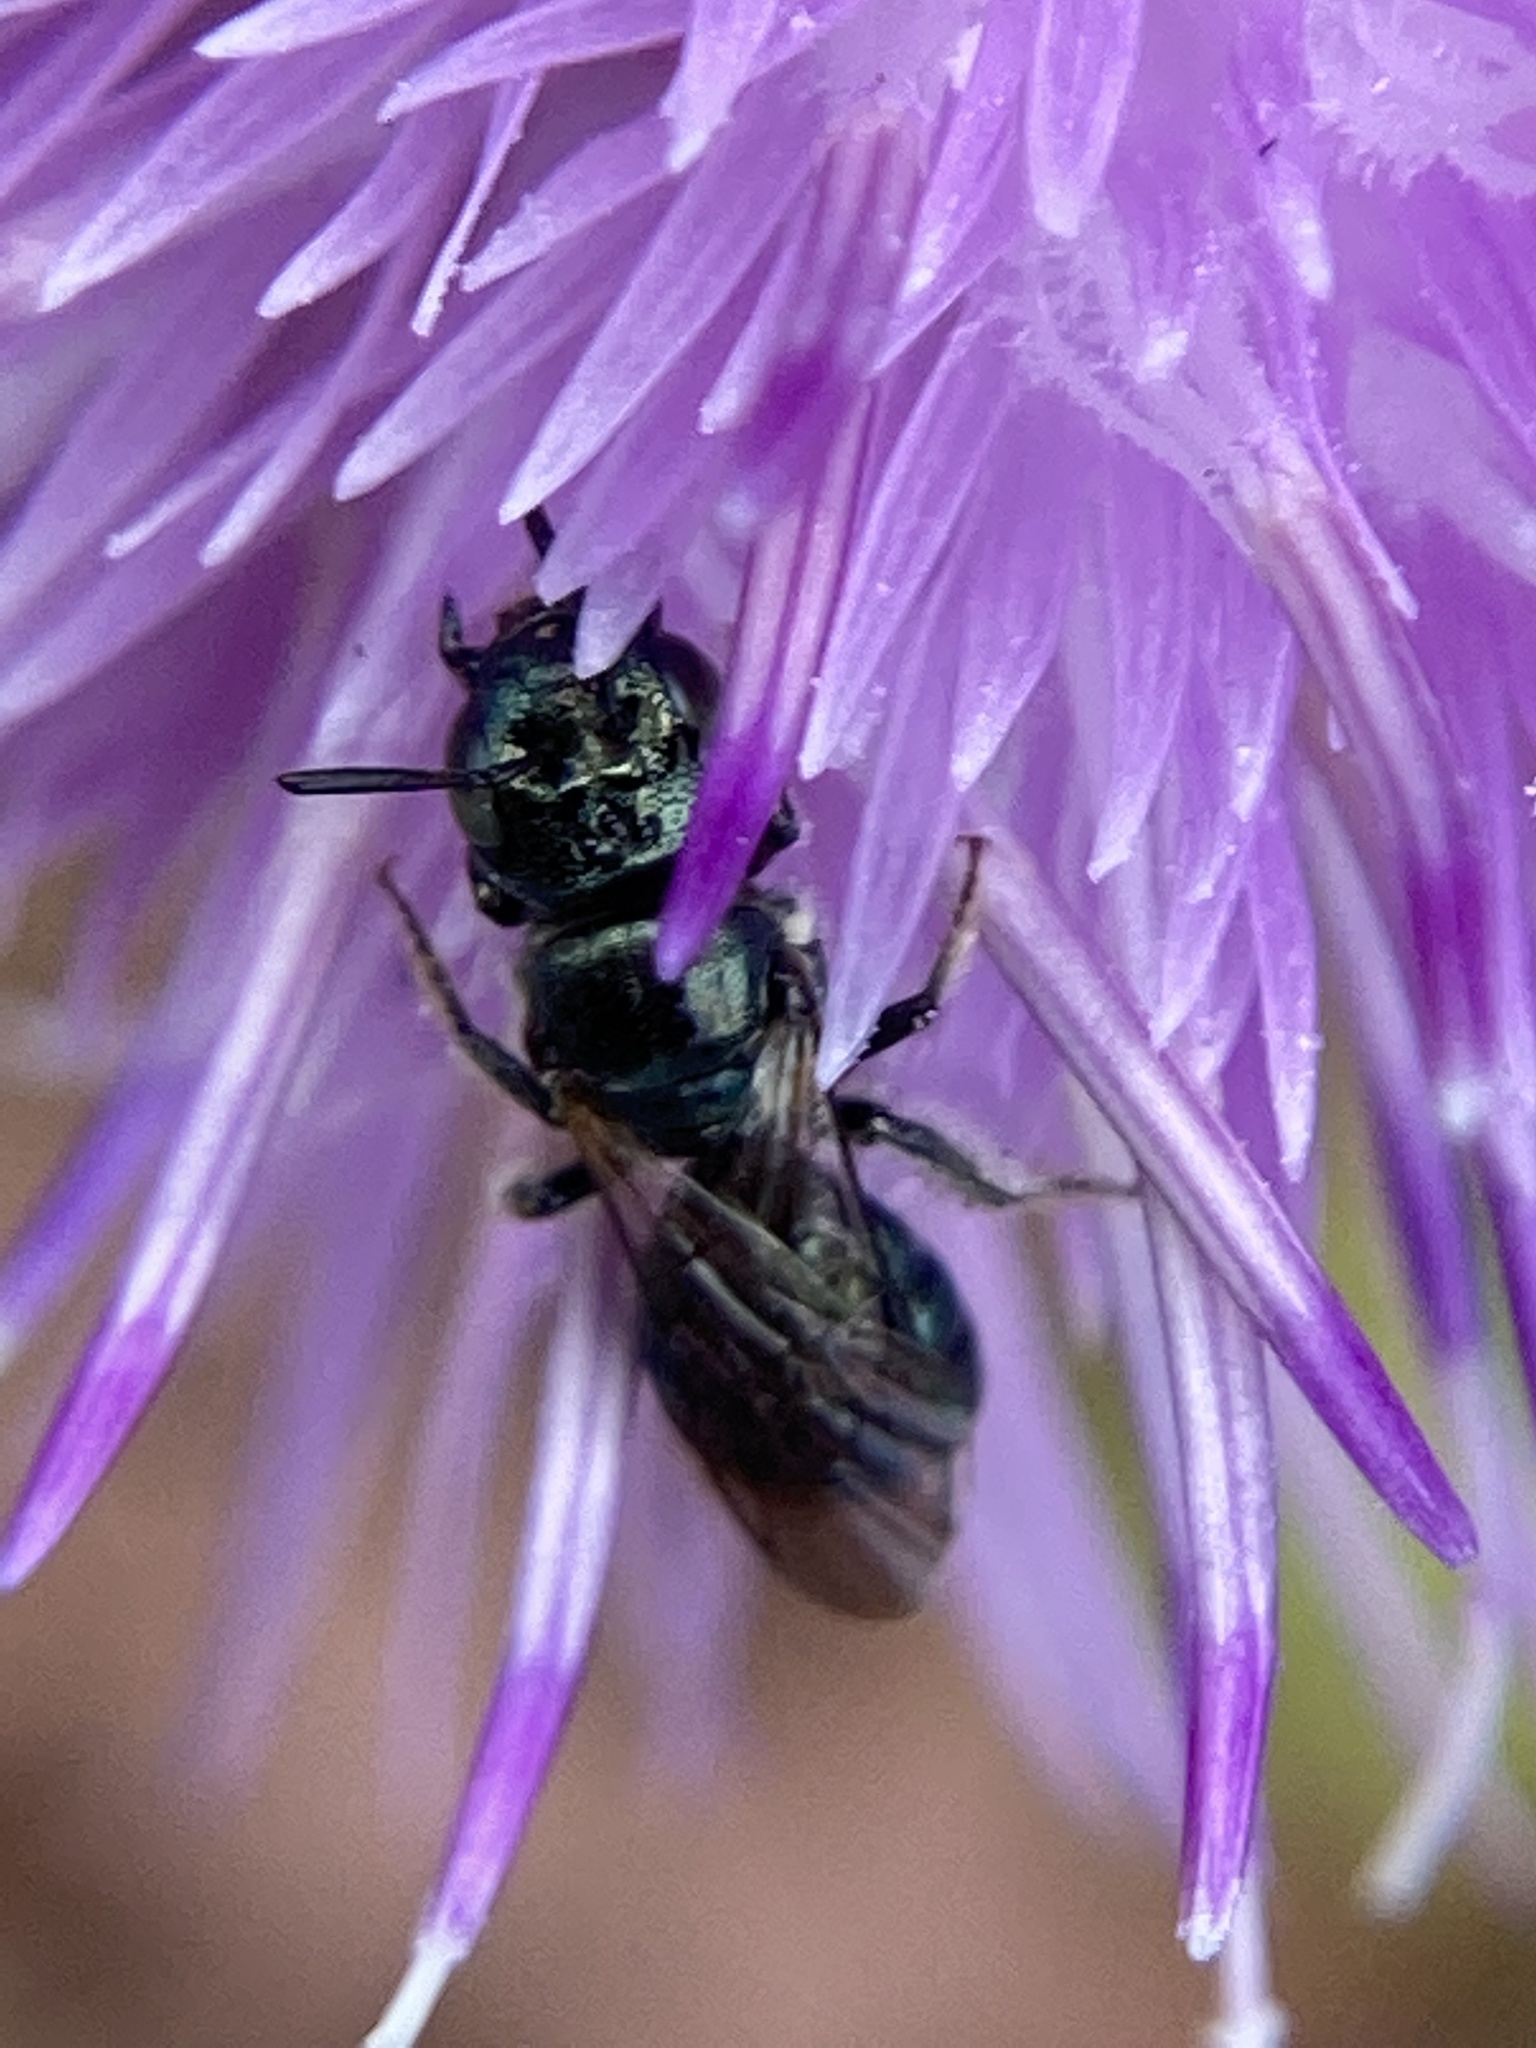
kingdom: Animalia
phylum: Arthropoda
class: Insecta
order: Hymenoptera
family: Apidae
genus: Zadontomerus
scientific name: Zadontomerus
